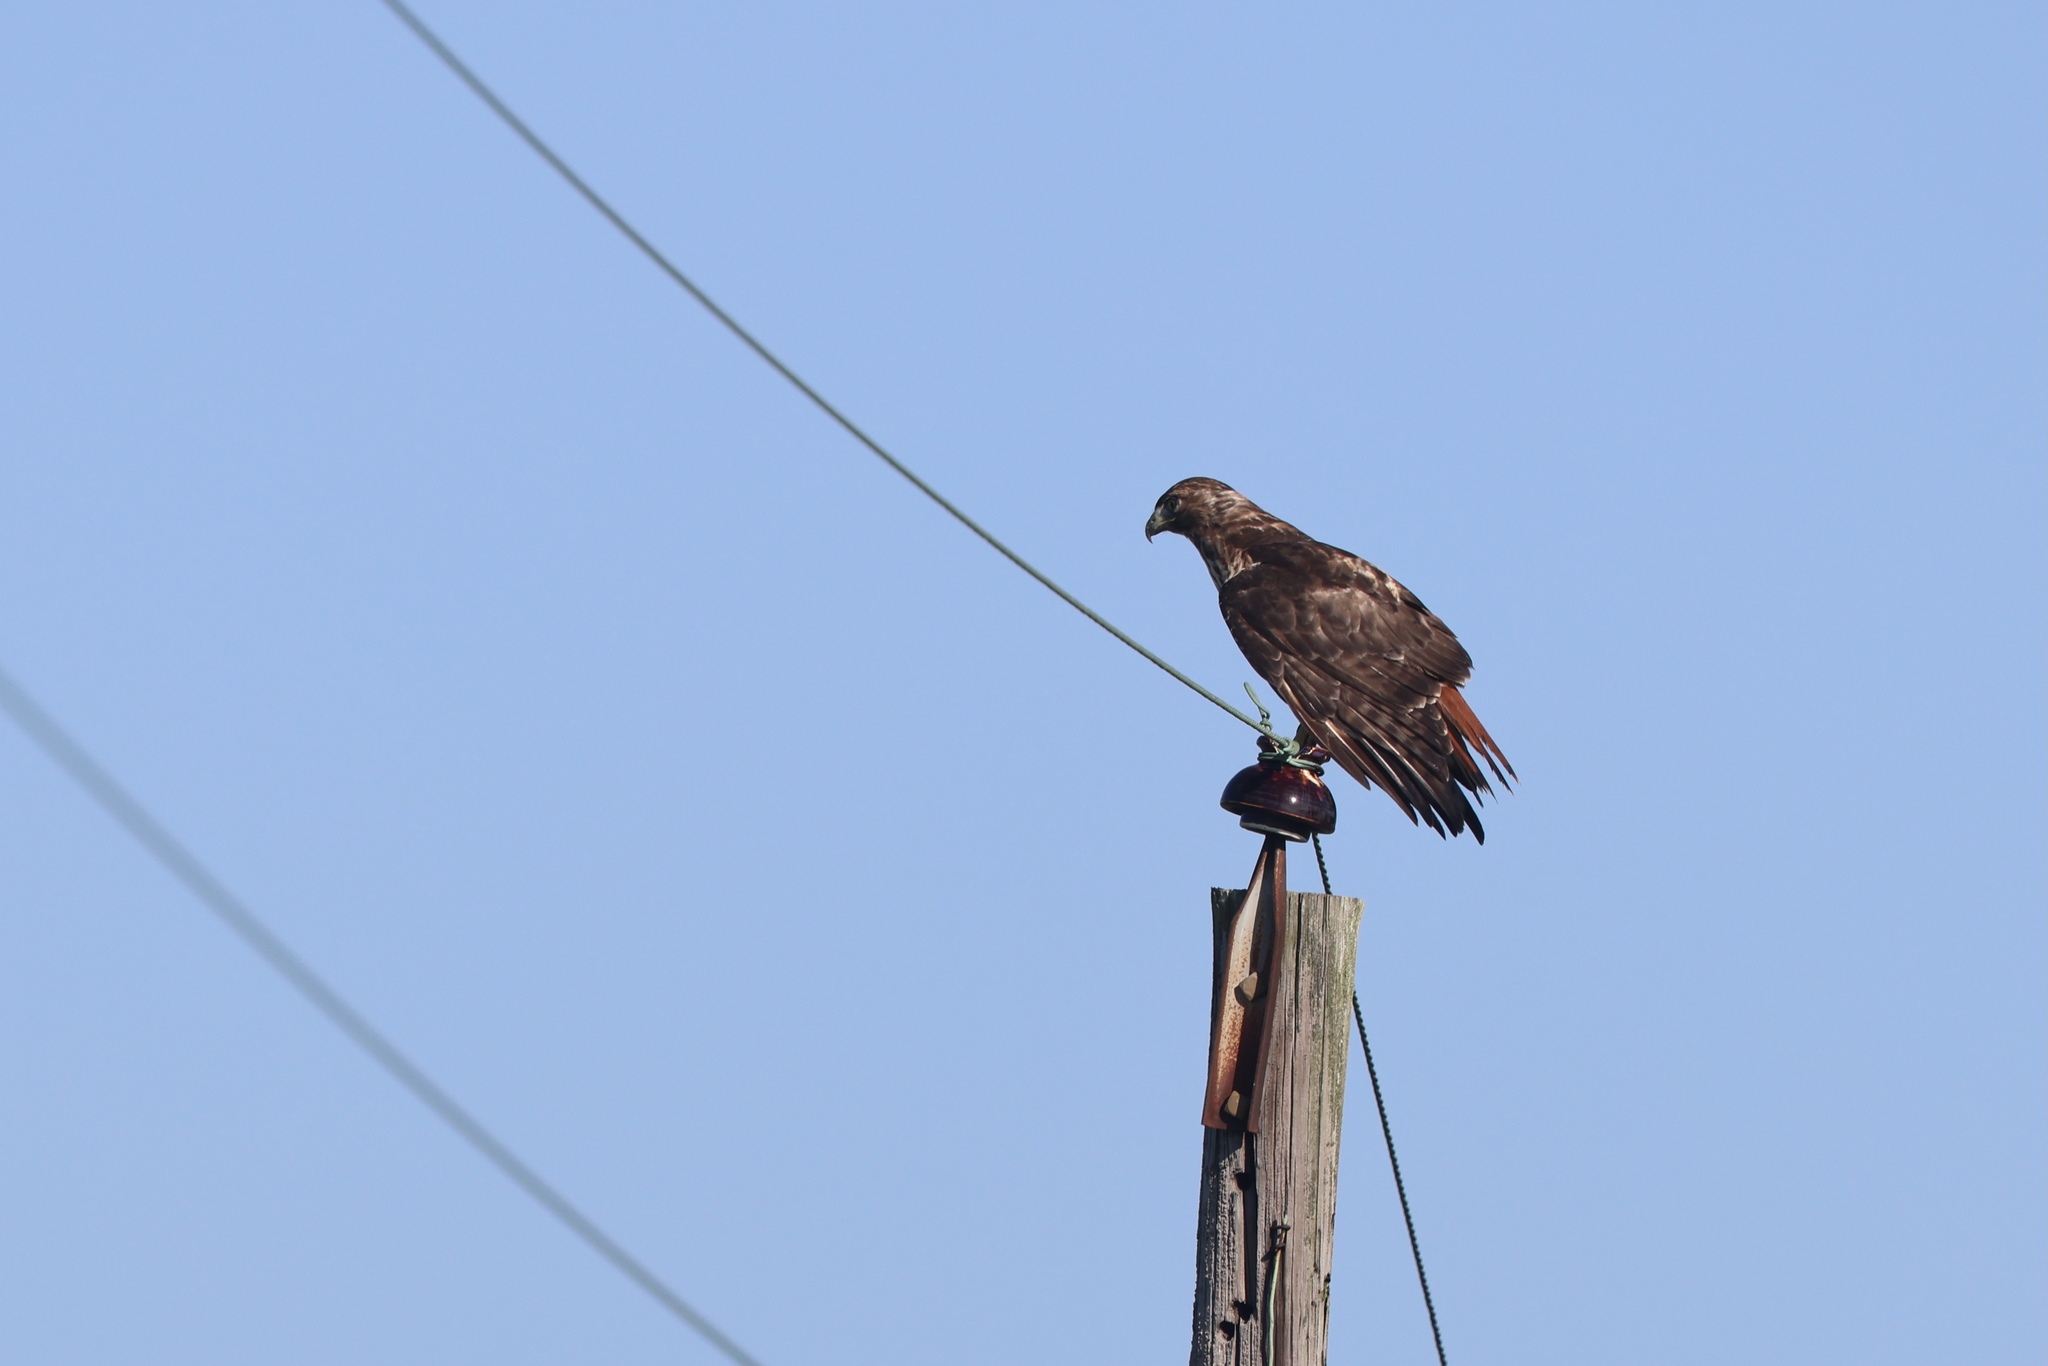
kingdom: Animalia
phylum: Chordata
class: Aves
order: Accipitriformes
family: Accipitridae
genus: Buteo
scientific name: Buteo jamaicensis
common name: Red-tailed hawk
